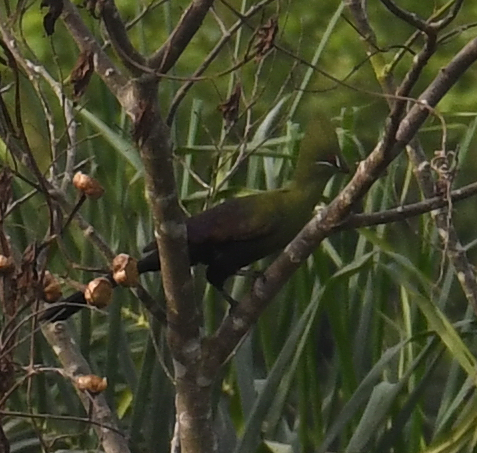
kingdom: Animalia
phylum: Chordata
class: Aves
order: Musophagiformes
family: Musophagidae
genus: Tauraco
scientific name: Tauraco persa
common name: Guinea turaco
